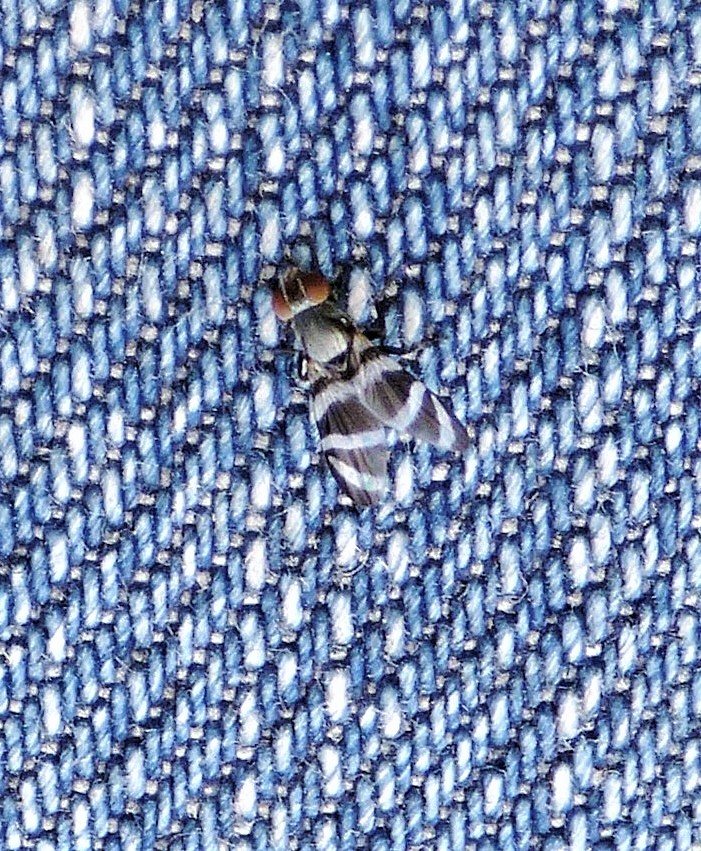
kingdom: Animalia
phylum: Arthropoda
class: Insecta
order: Diptera
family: Ulidiidae
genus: Euxesta
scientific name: Euxesta
